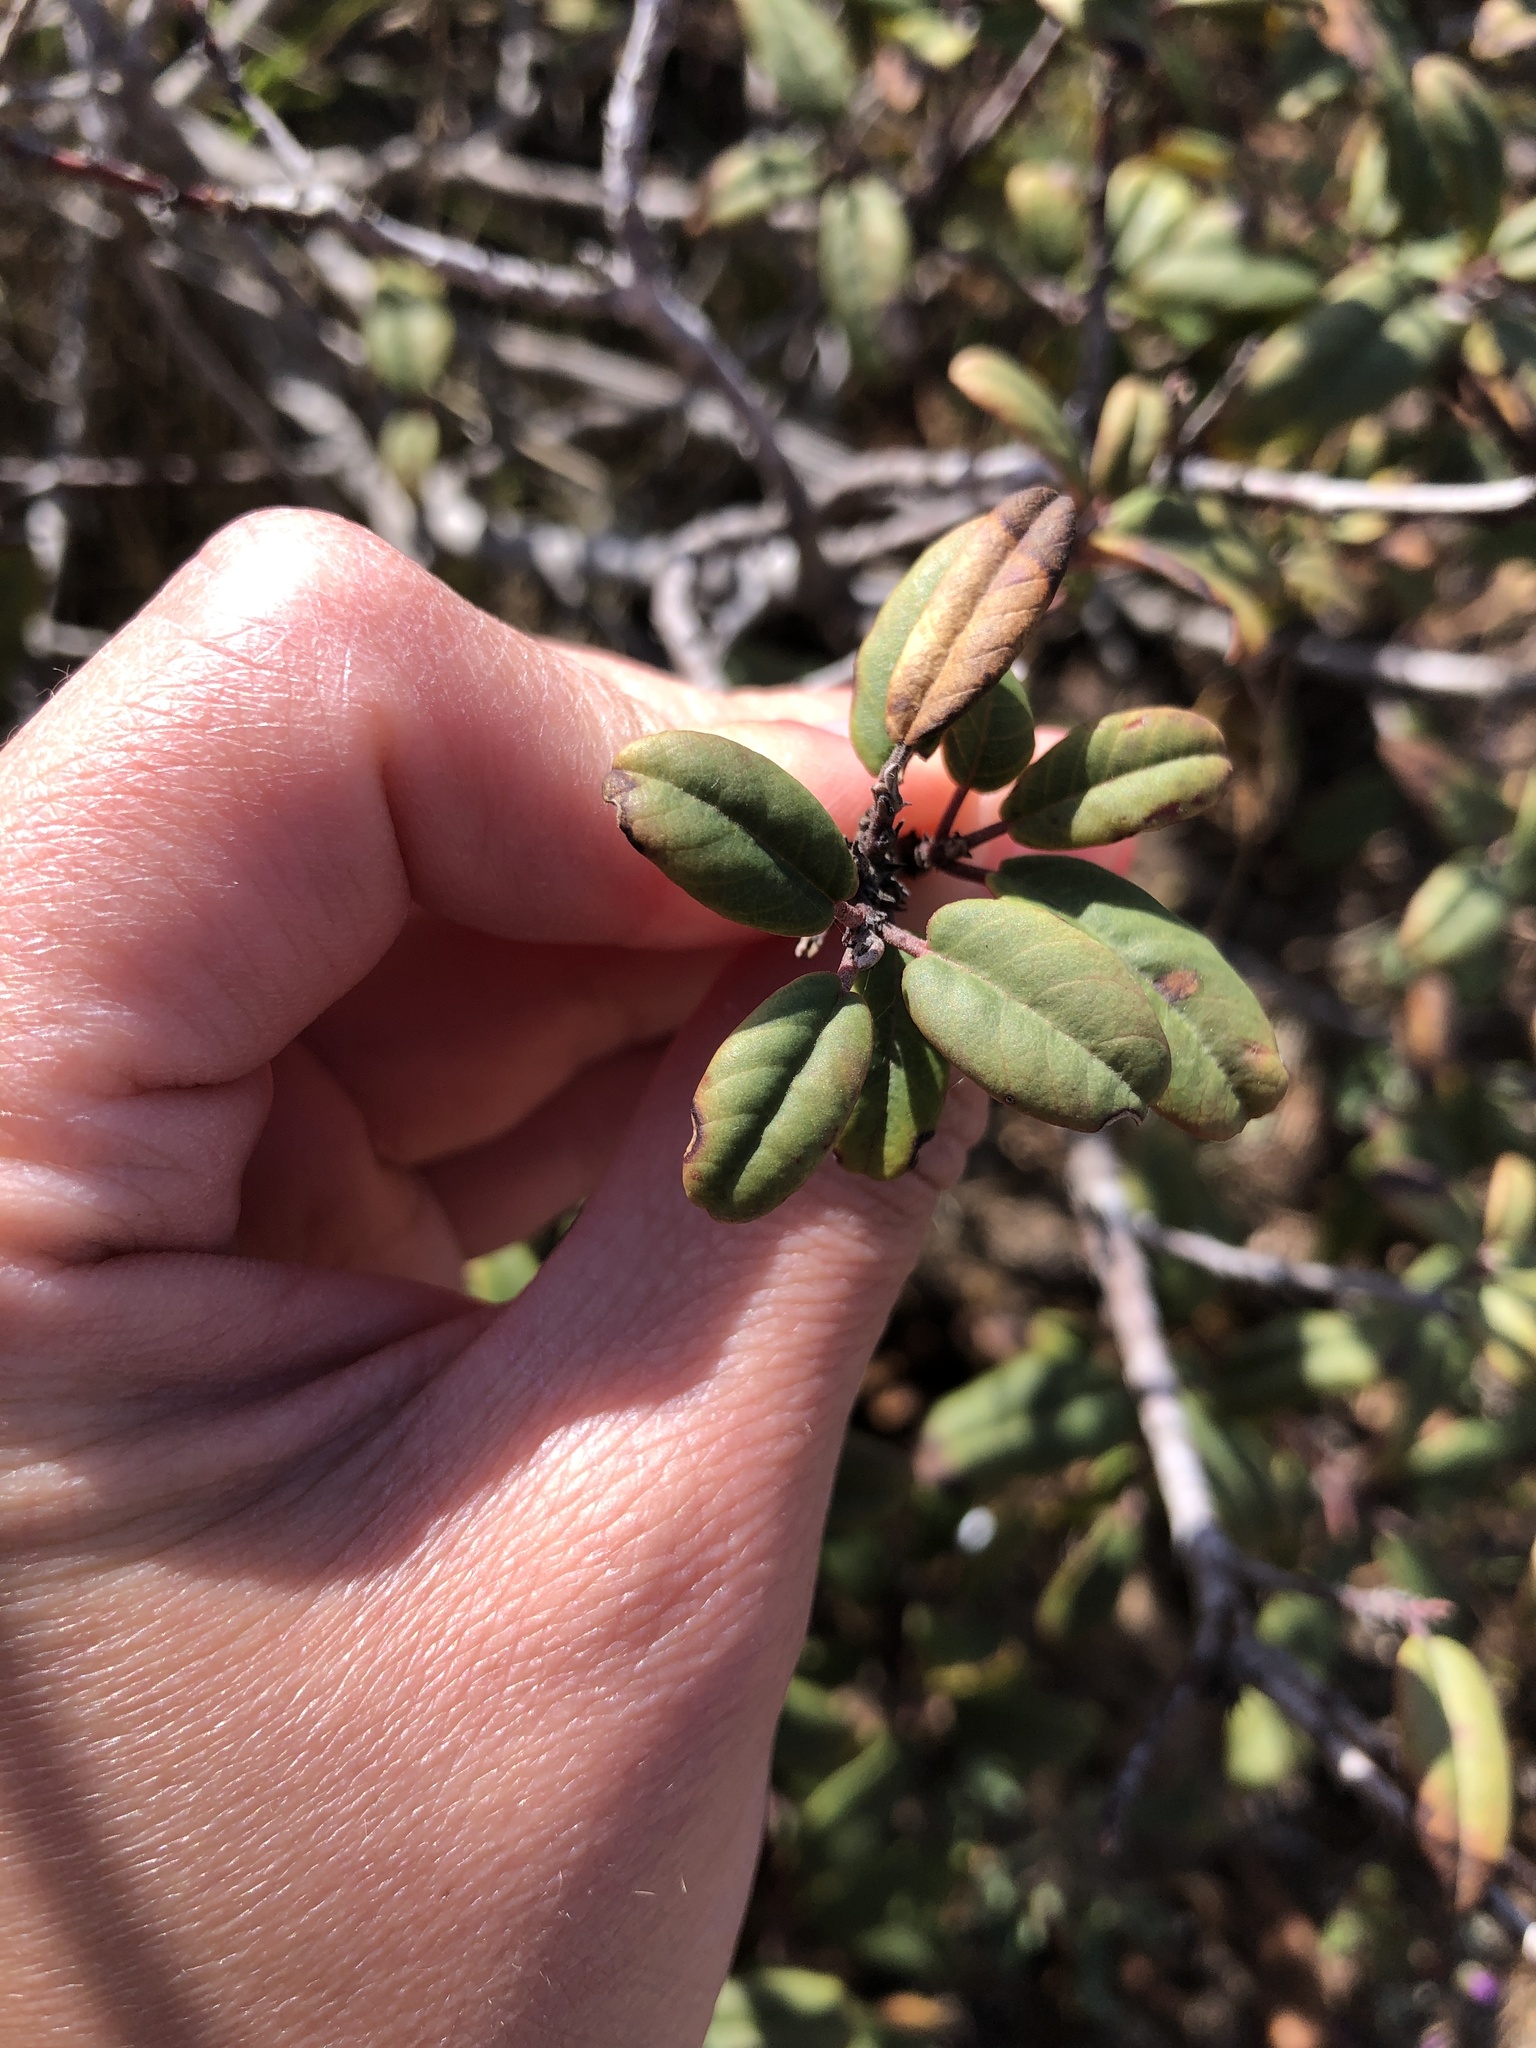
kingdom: Plantae
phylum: Tracheophyta
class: Magnoliopsida
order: Rosales
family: Rhamnaceae
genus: Frangula
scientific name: Frangula californica
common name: California buckthorn
